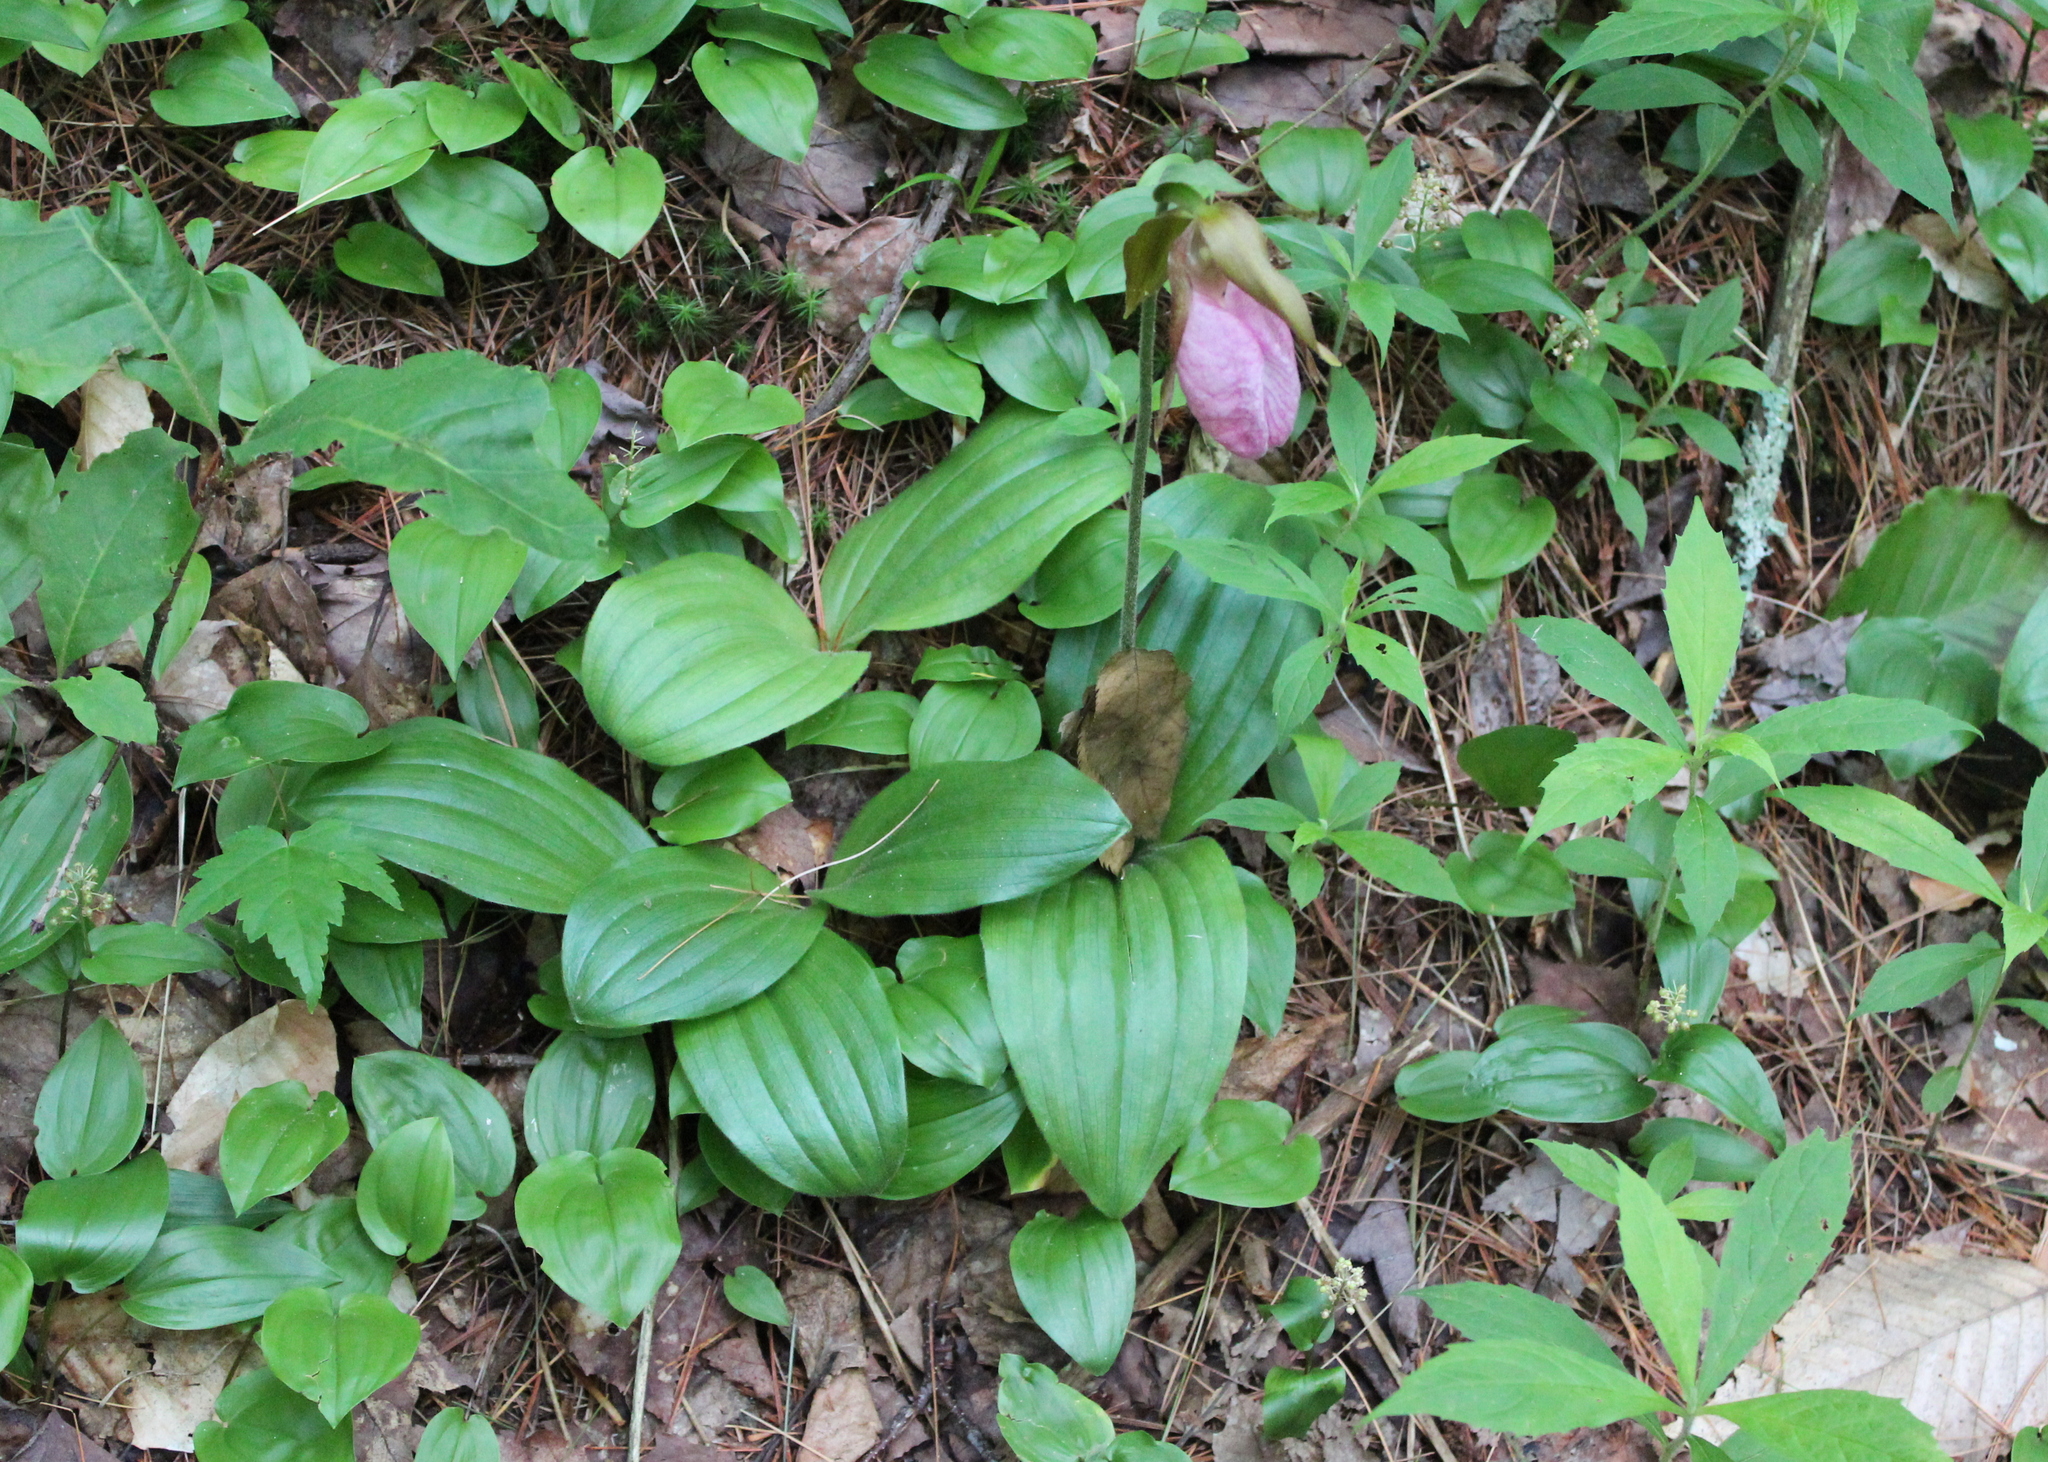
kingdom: Plantae
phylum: Tracheophyta
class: Liliopsida
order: Asparagales
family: Orchidaceae
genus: Cypripedium
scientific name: Cypripedium acaule
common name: Pink lady's-slipper
